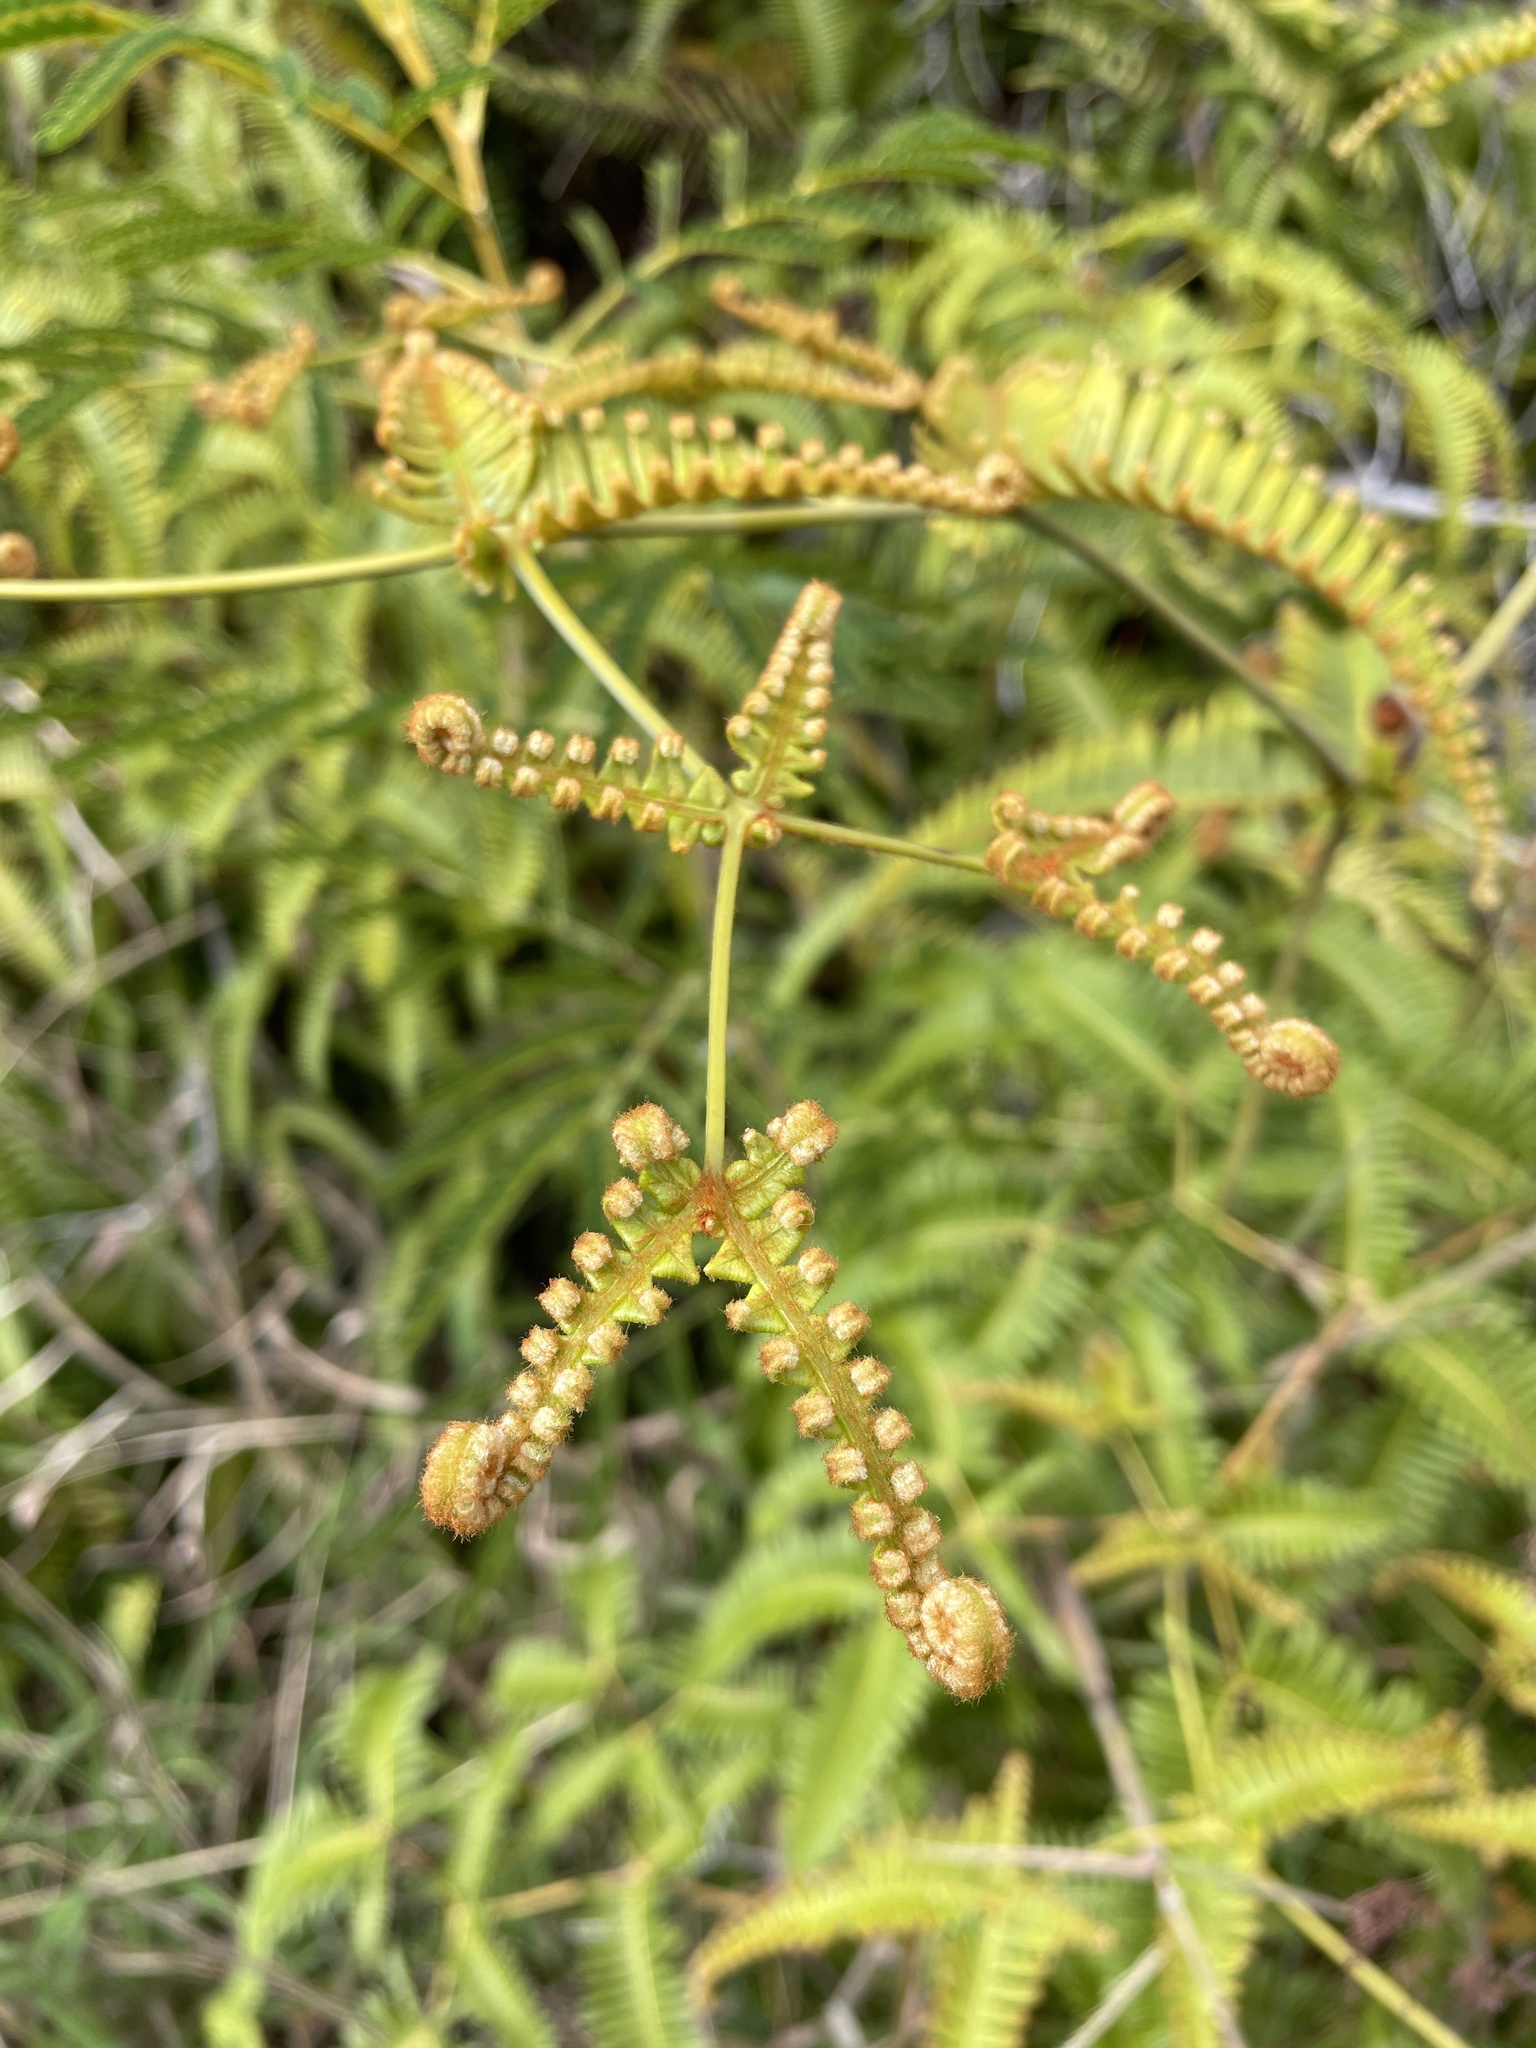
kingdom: Plantae
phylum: Tracheophyta
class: Polypodiopsida
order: Gleicheniales
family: Gleicheniaceae
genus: Dicranopteris
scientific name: Dicranopteris linearis
